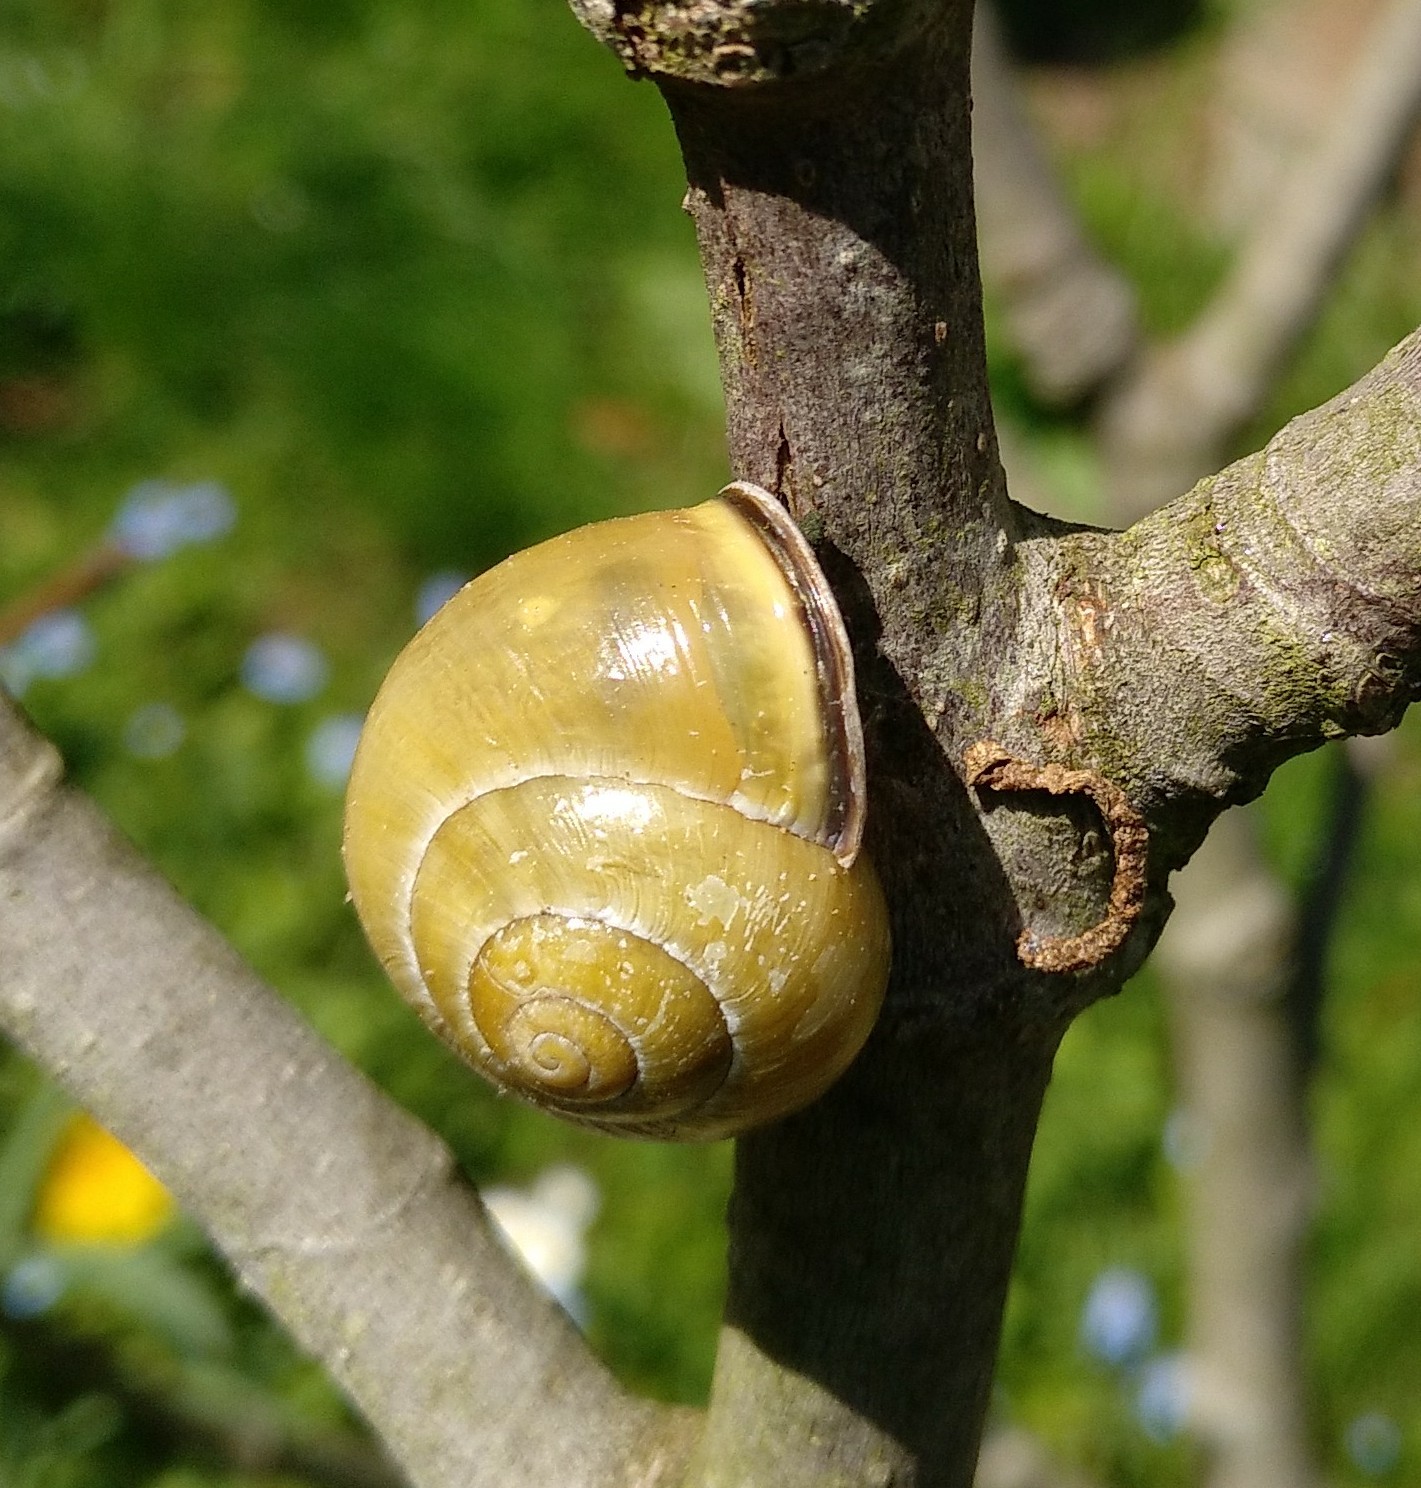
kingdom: Animalia
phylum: Mollusca
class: Gastropoda
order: Stylommatophora
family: Helicidae
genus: Cepaea
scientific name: Cepaea nemoralis
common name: Grovesnail
